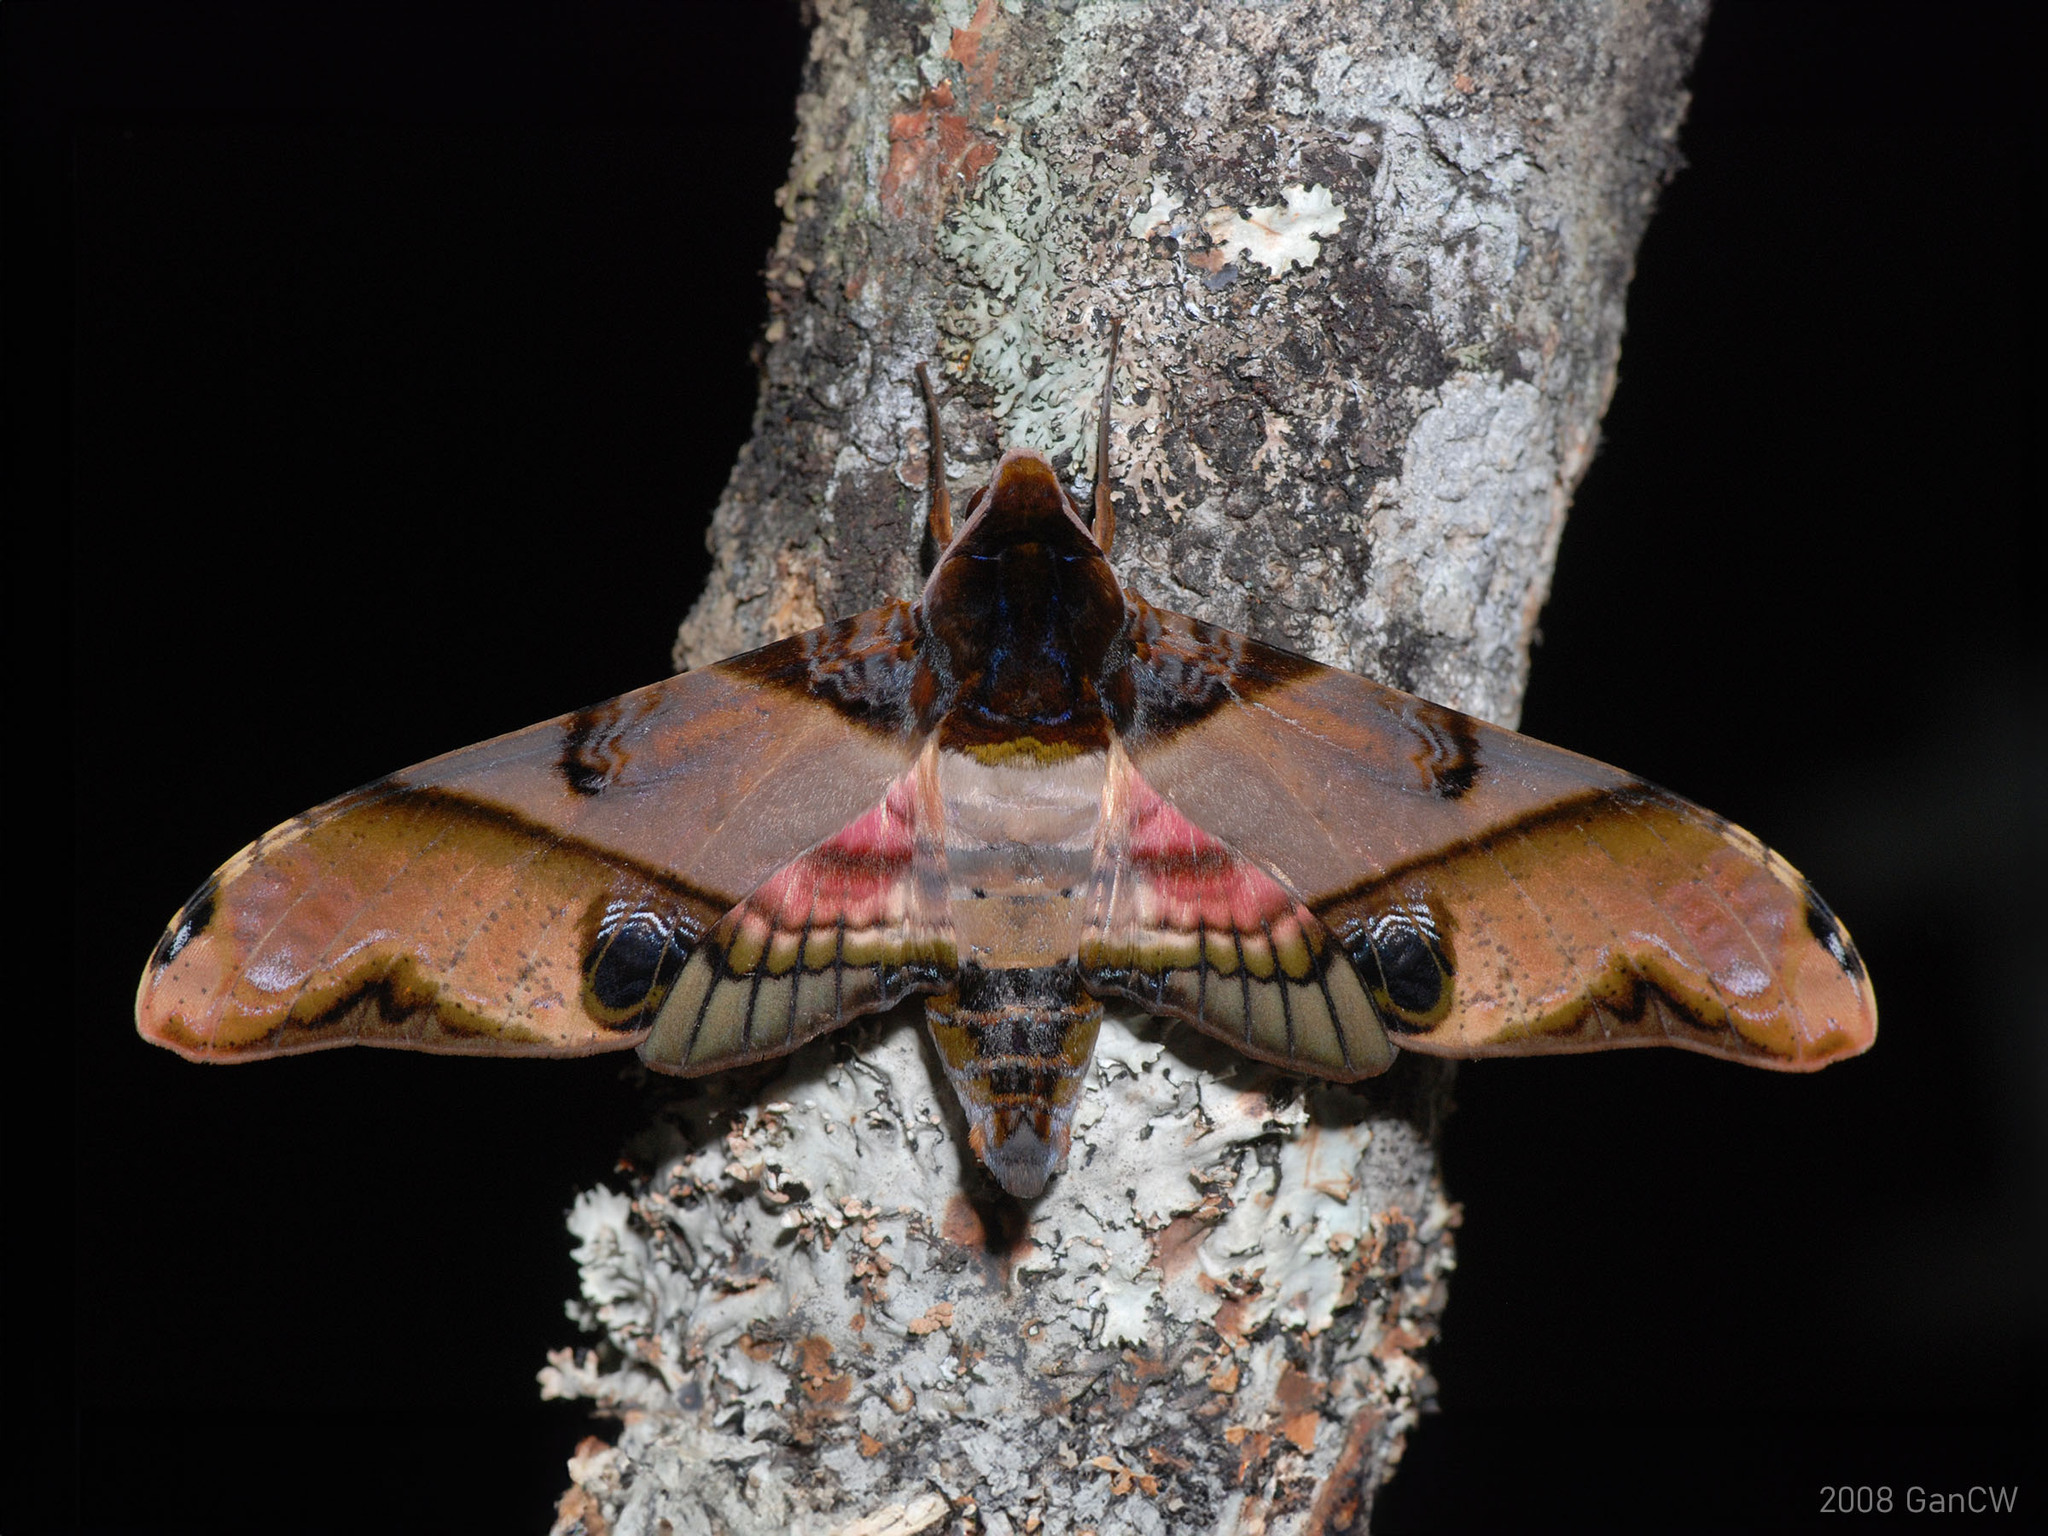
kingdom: Animalia
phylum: Arthropoda
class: Insecta
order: Lepidoptera
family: Sphingidae
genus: Amplypterus
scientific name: Amplypterus panopus
